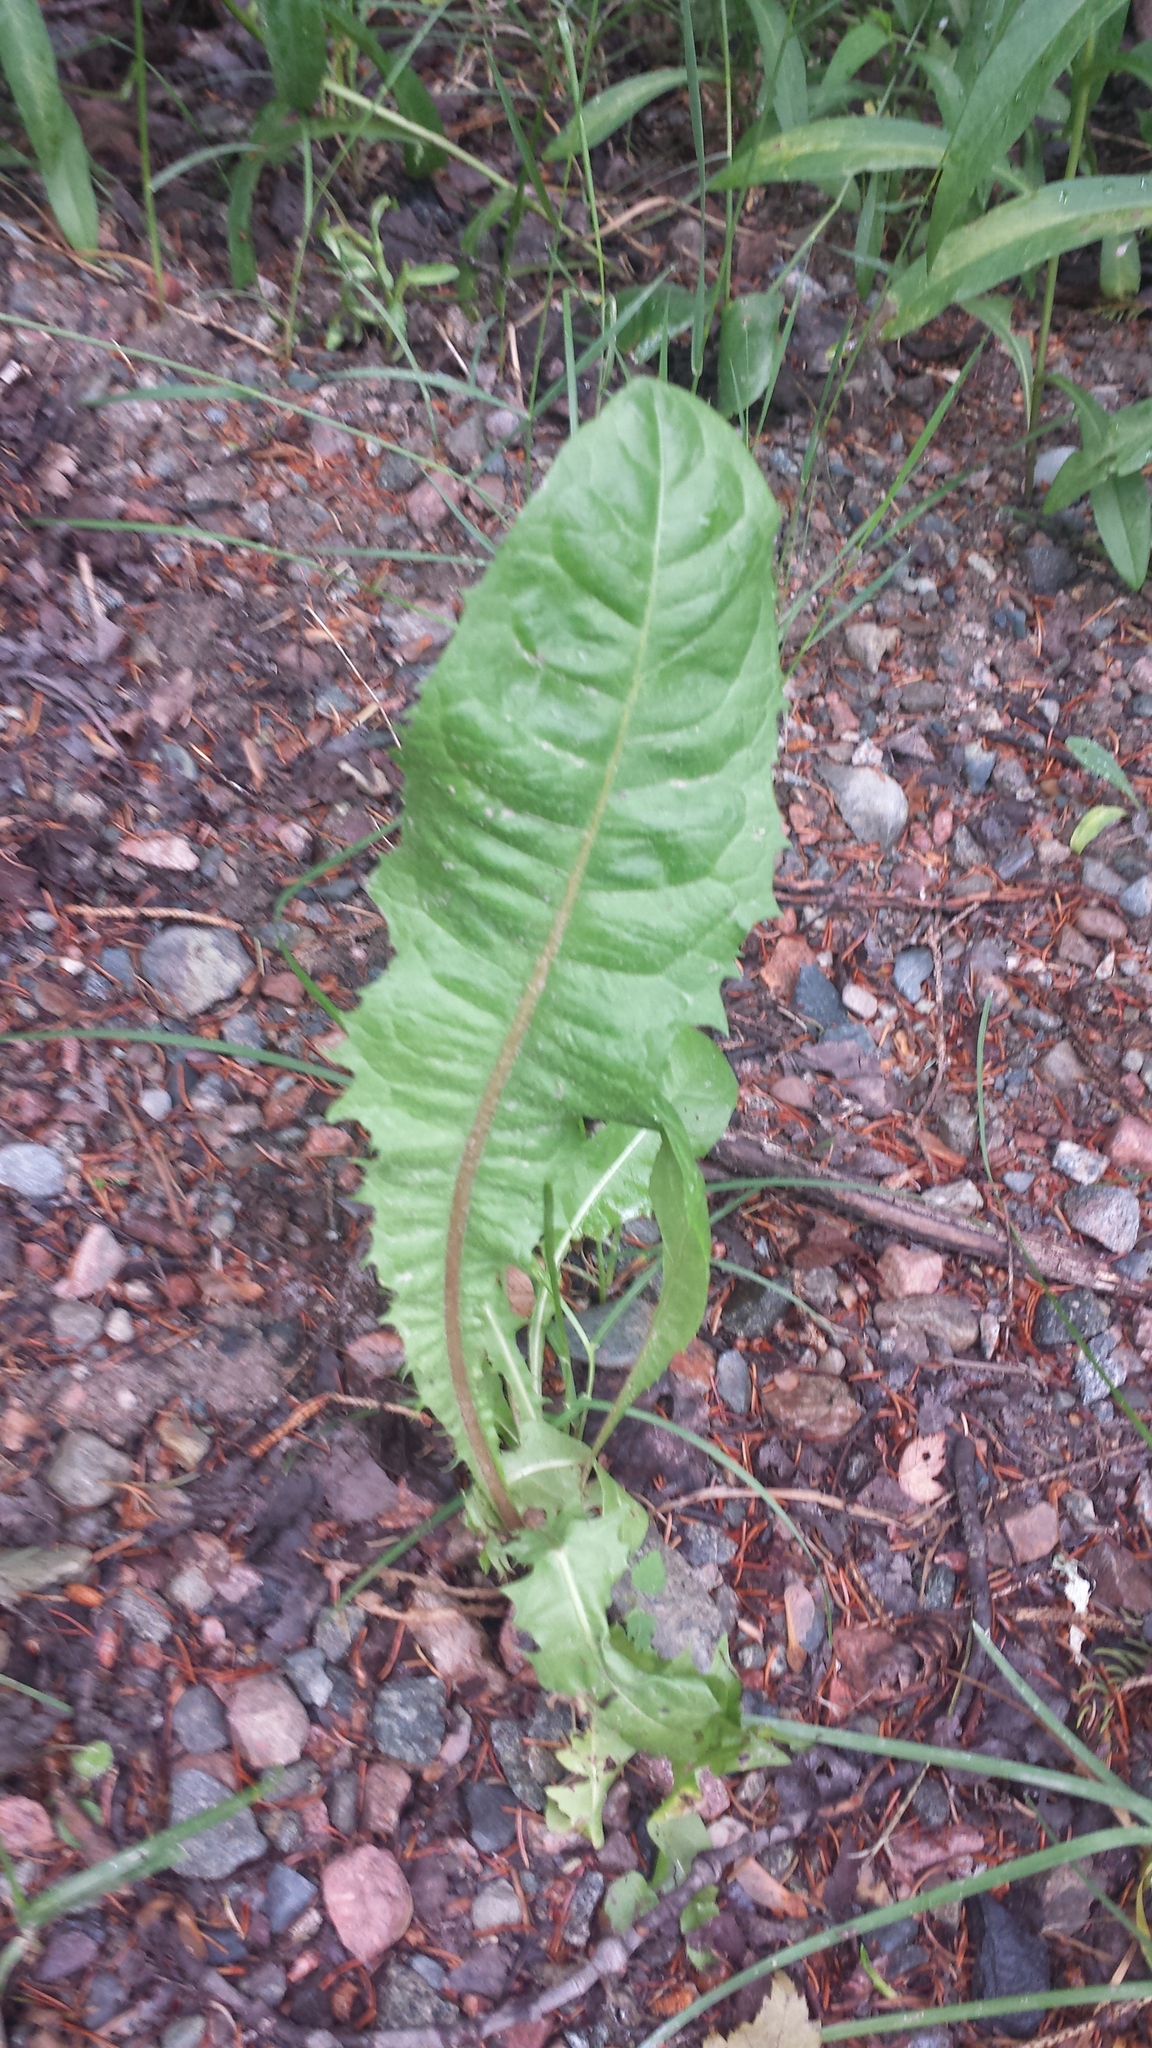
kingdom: Plantae
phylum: Tracheophyta
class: Magnoliopsida
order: Asterales
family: Asteraceae
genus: Taraxacum
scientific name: Taraxacum officinale
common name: Common dandelion
